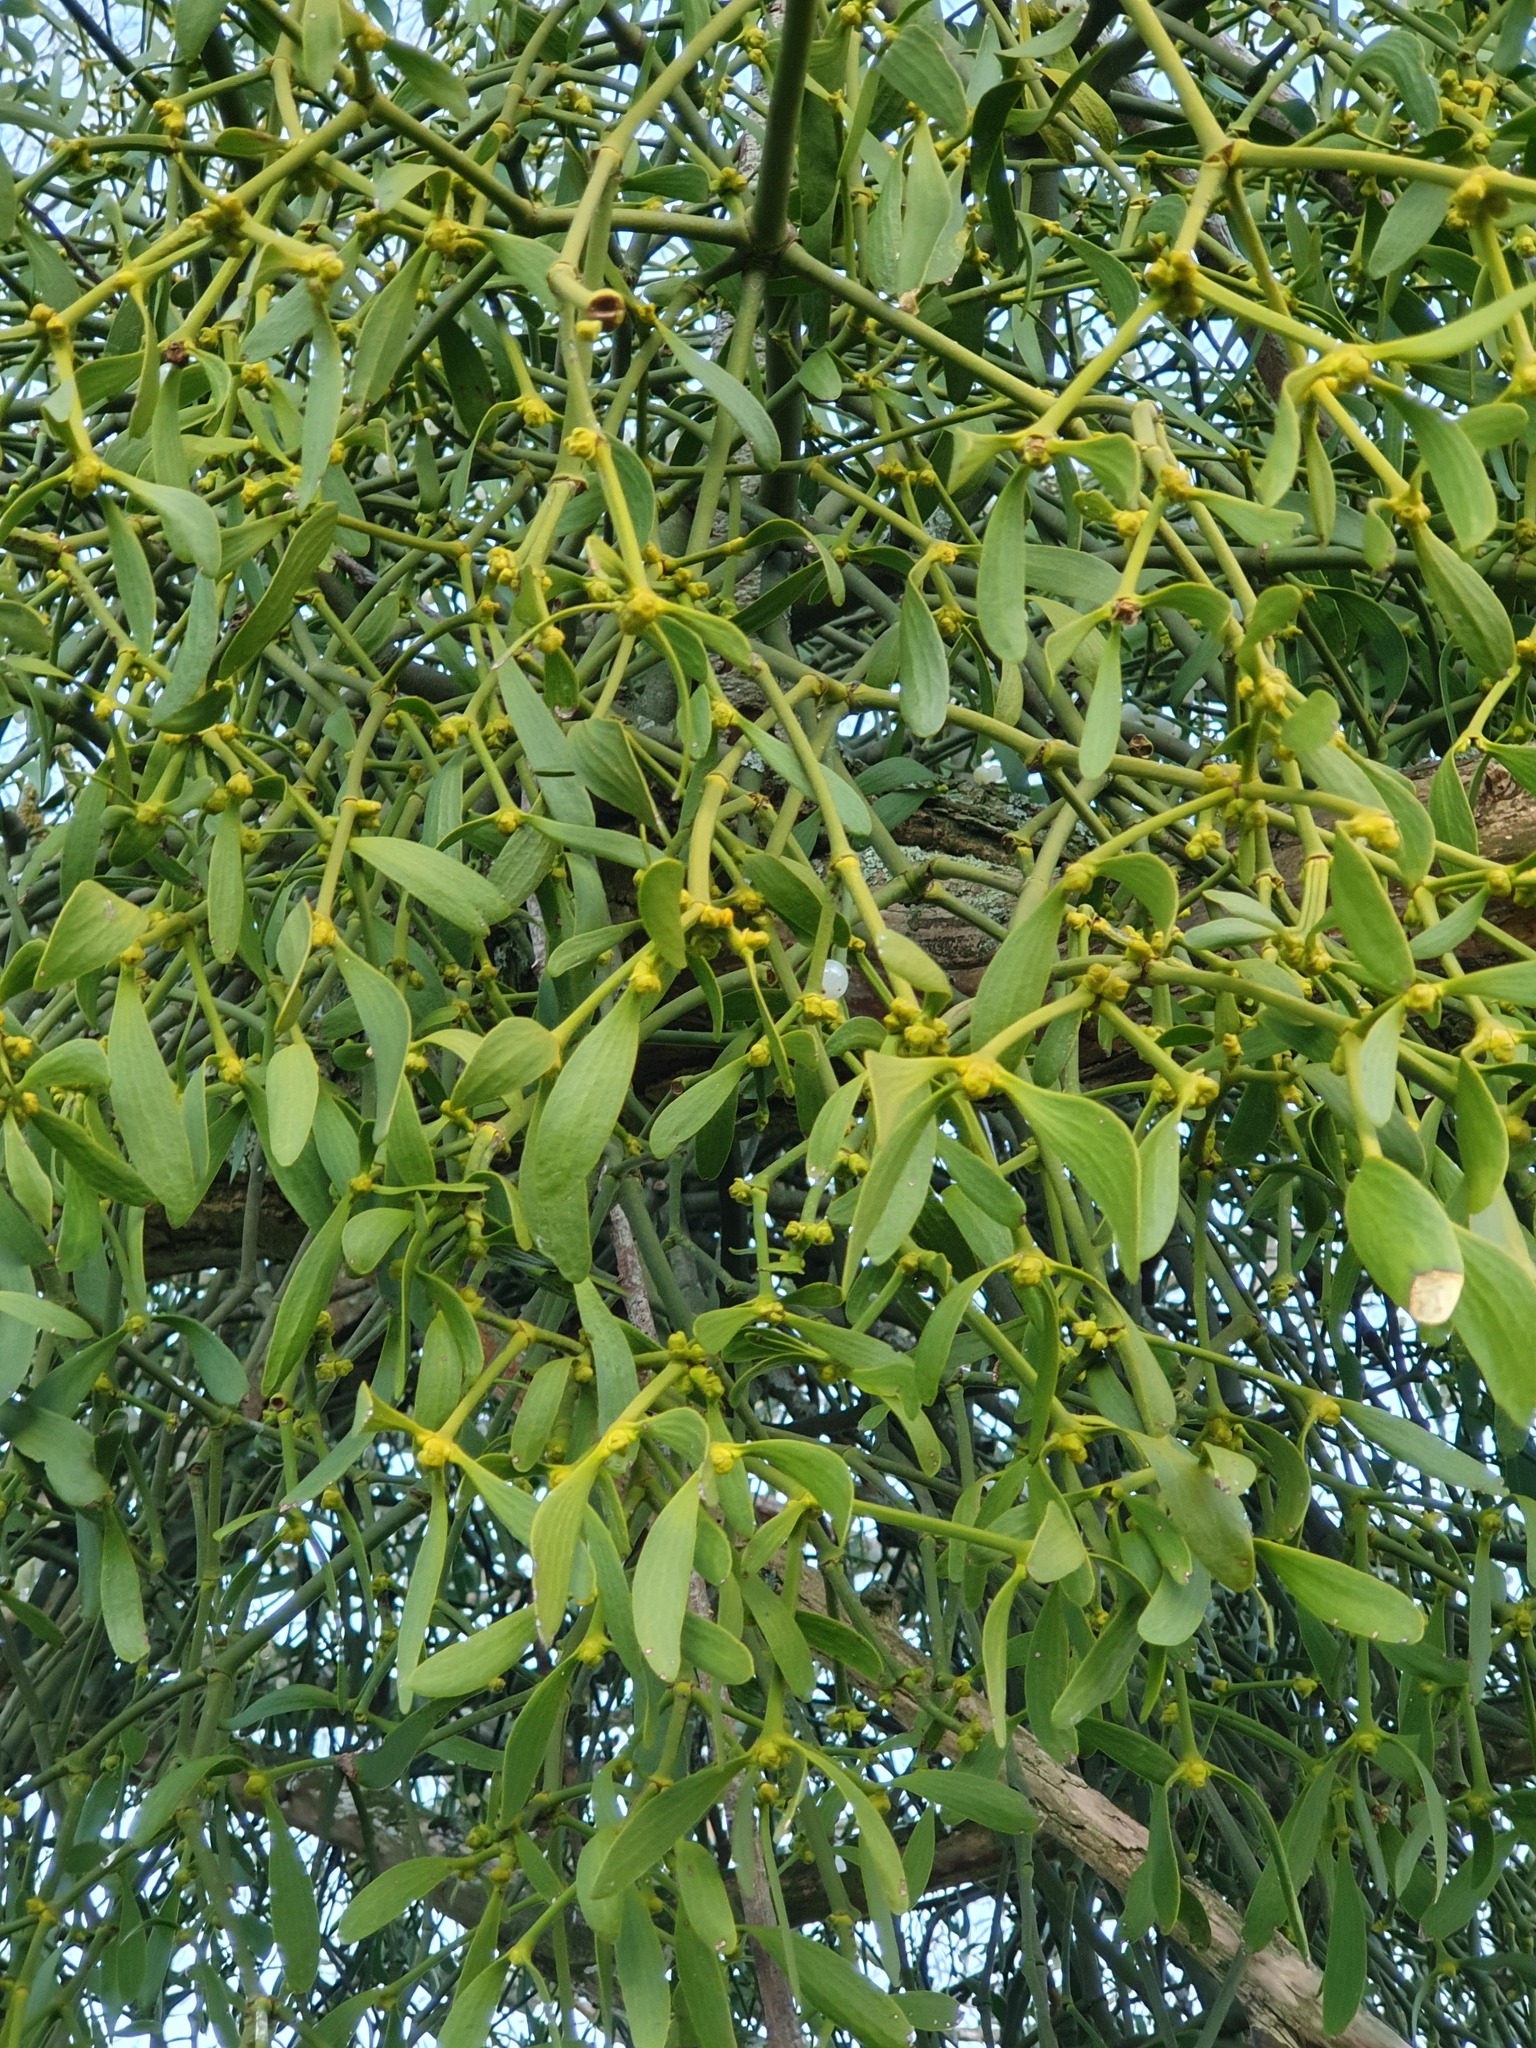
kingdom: Plantae
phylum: Tracheophyta
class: Magnoliopsida
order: Santalales
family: Viscaceae
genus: Viscum
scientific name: Viscum album
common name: Mistletoe
